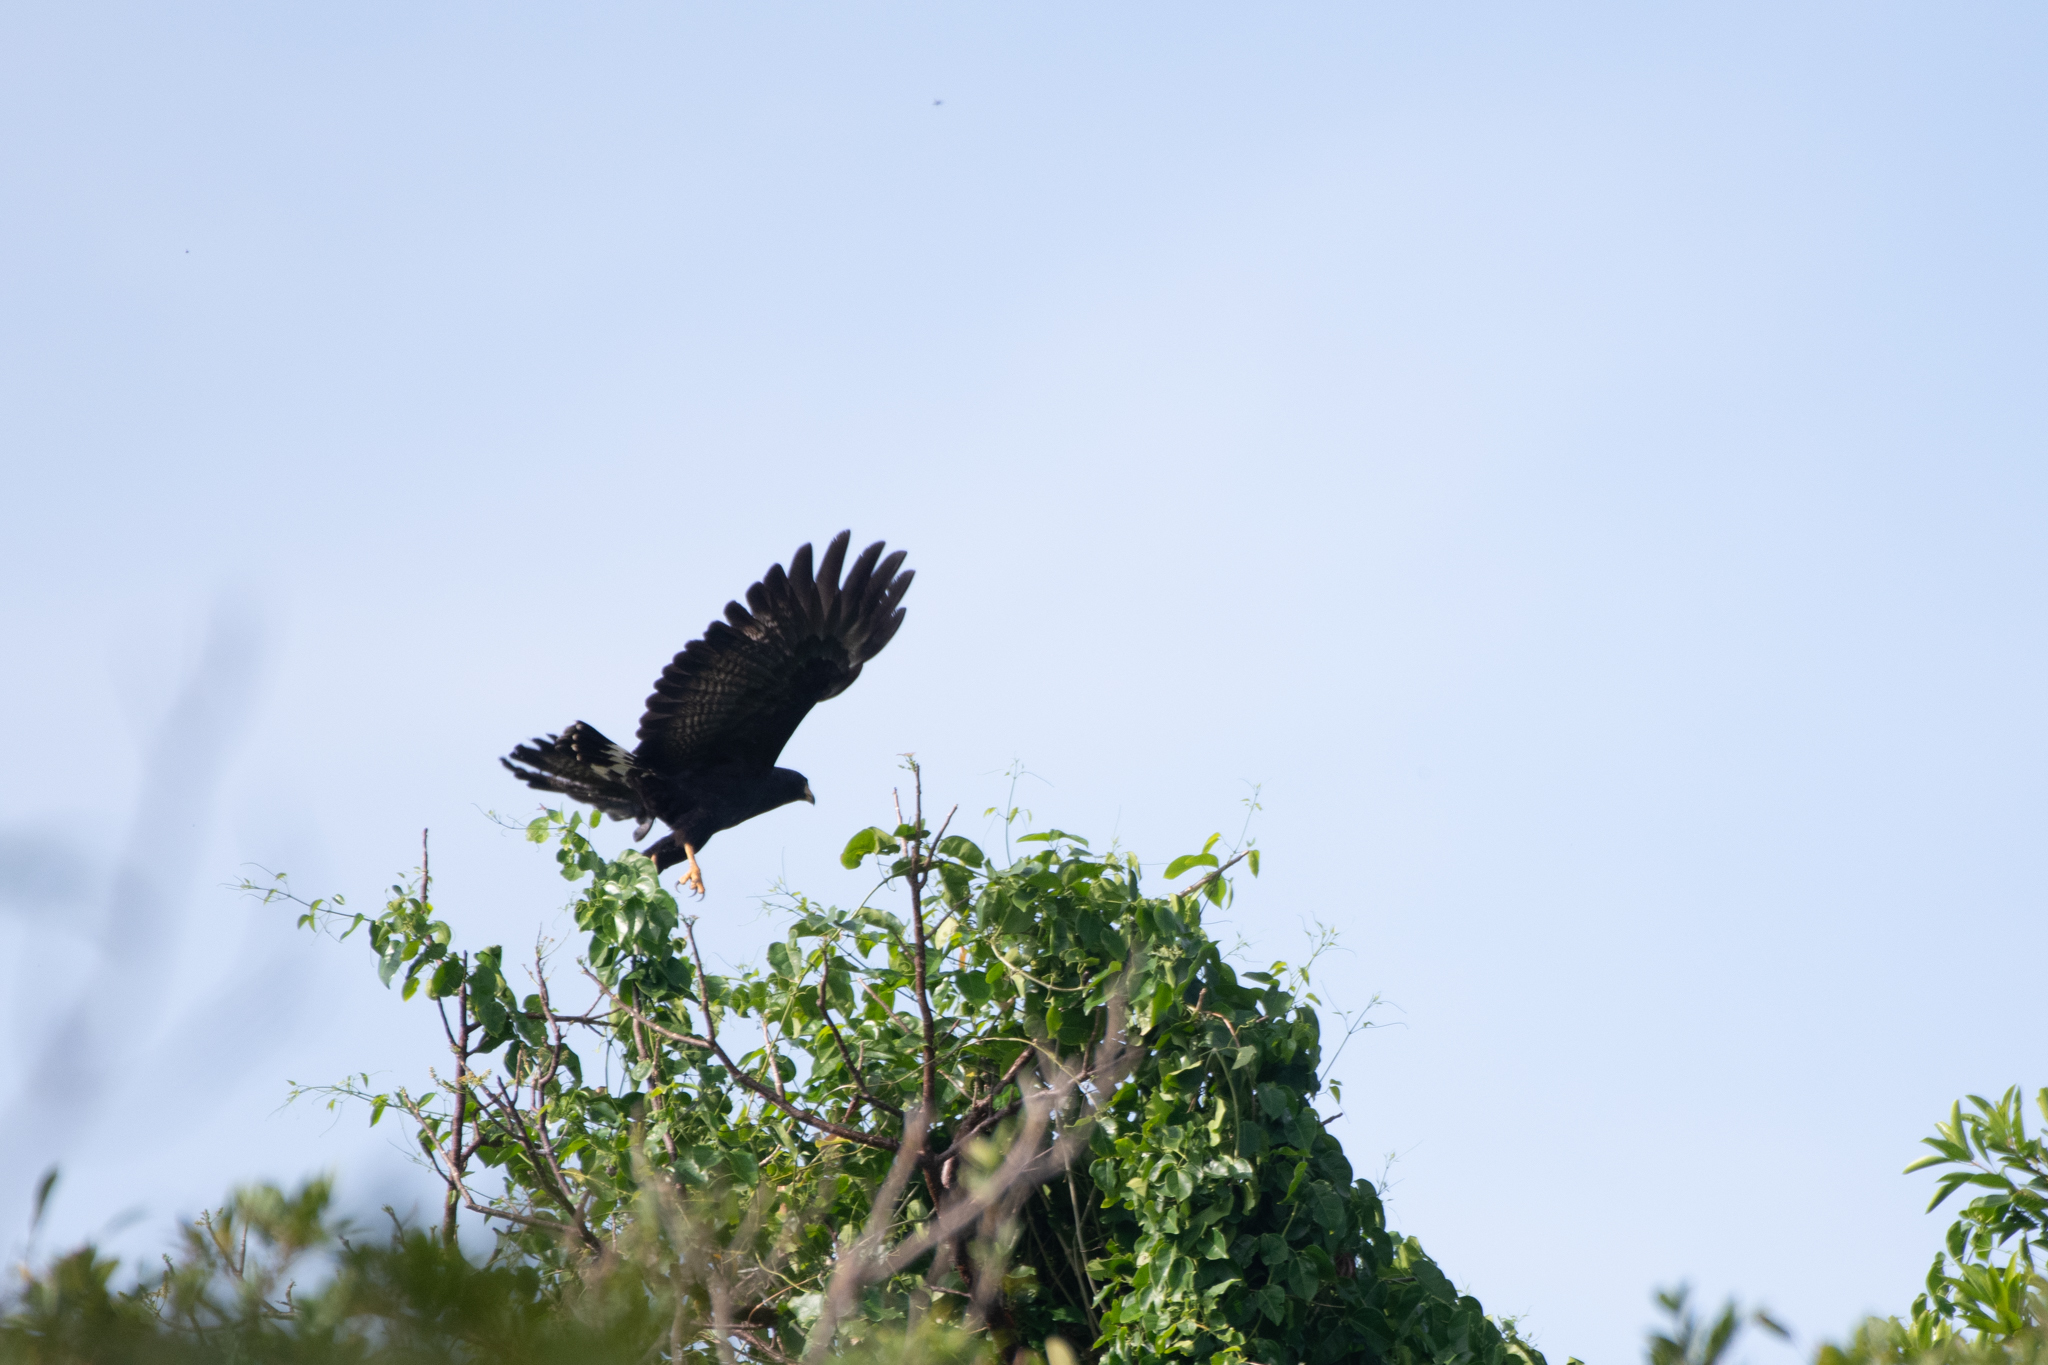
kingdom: Animalia
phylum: Chordata
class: Aves
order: Accipitriformes
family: Accipitridae
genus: Buteogallus
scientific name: Buteogallus anthracinus
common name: Common black hawk
